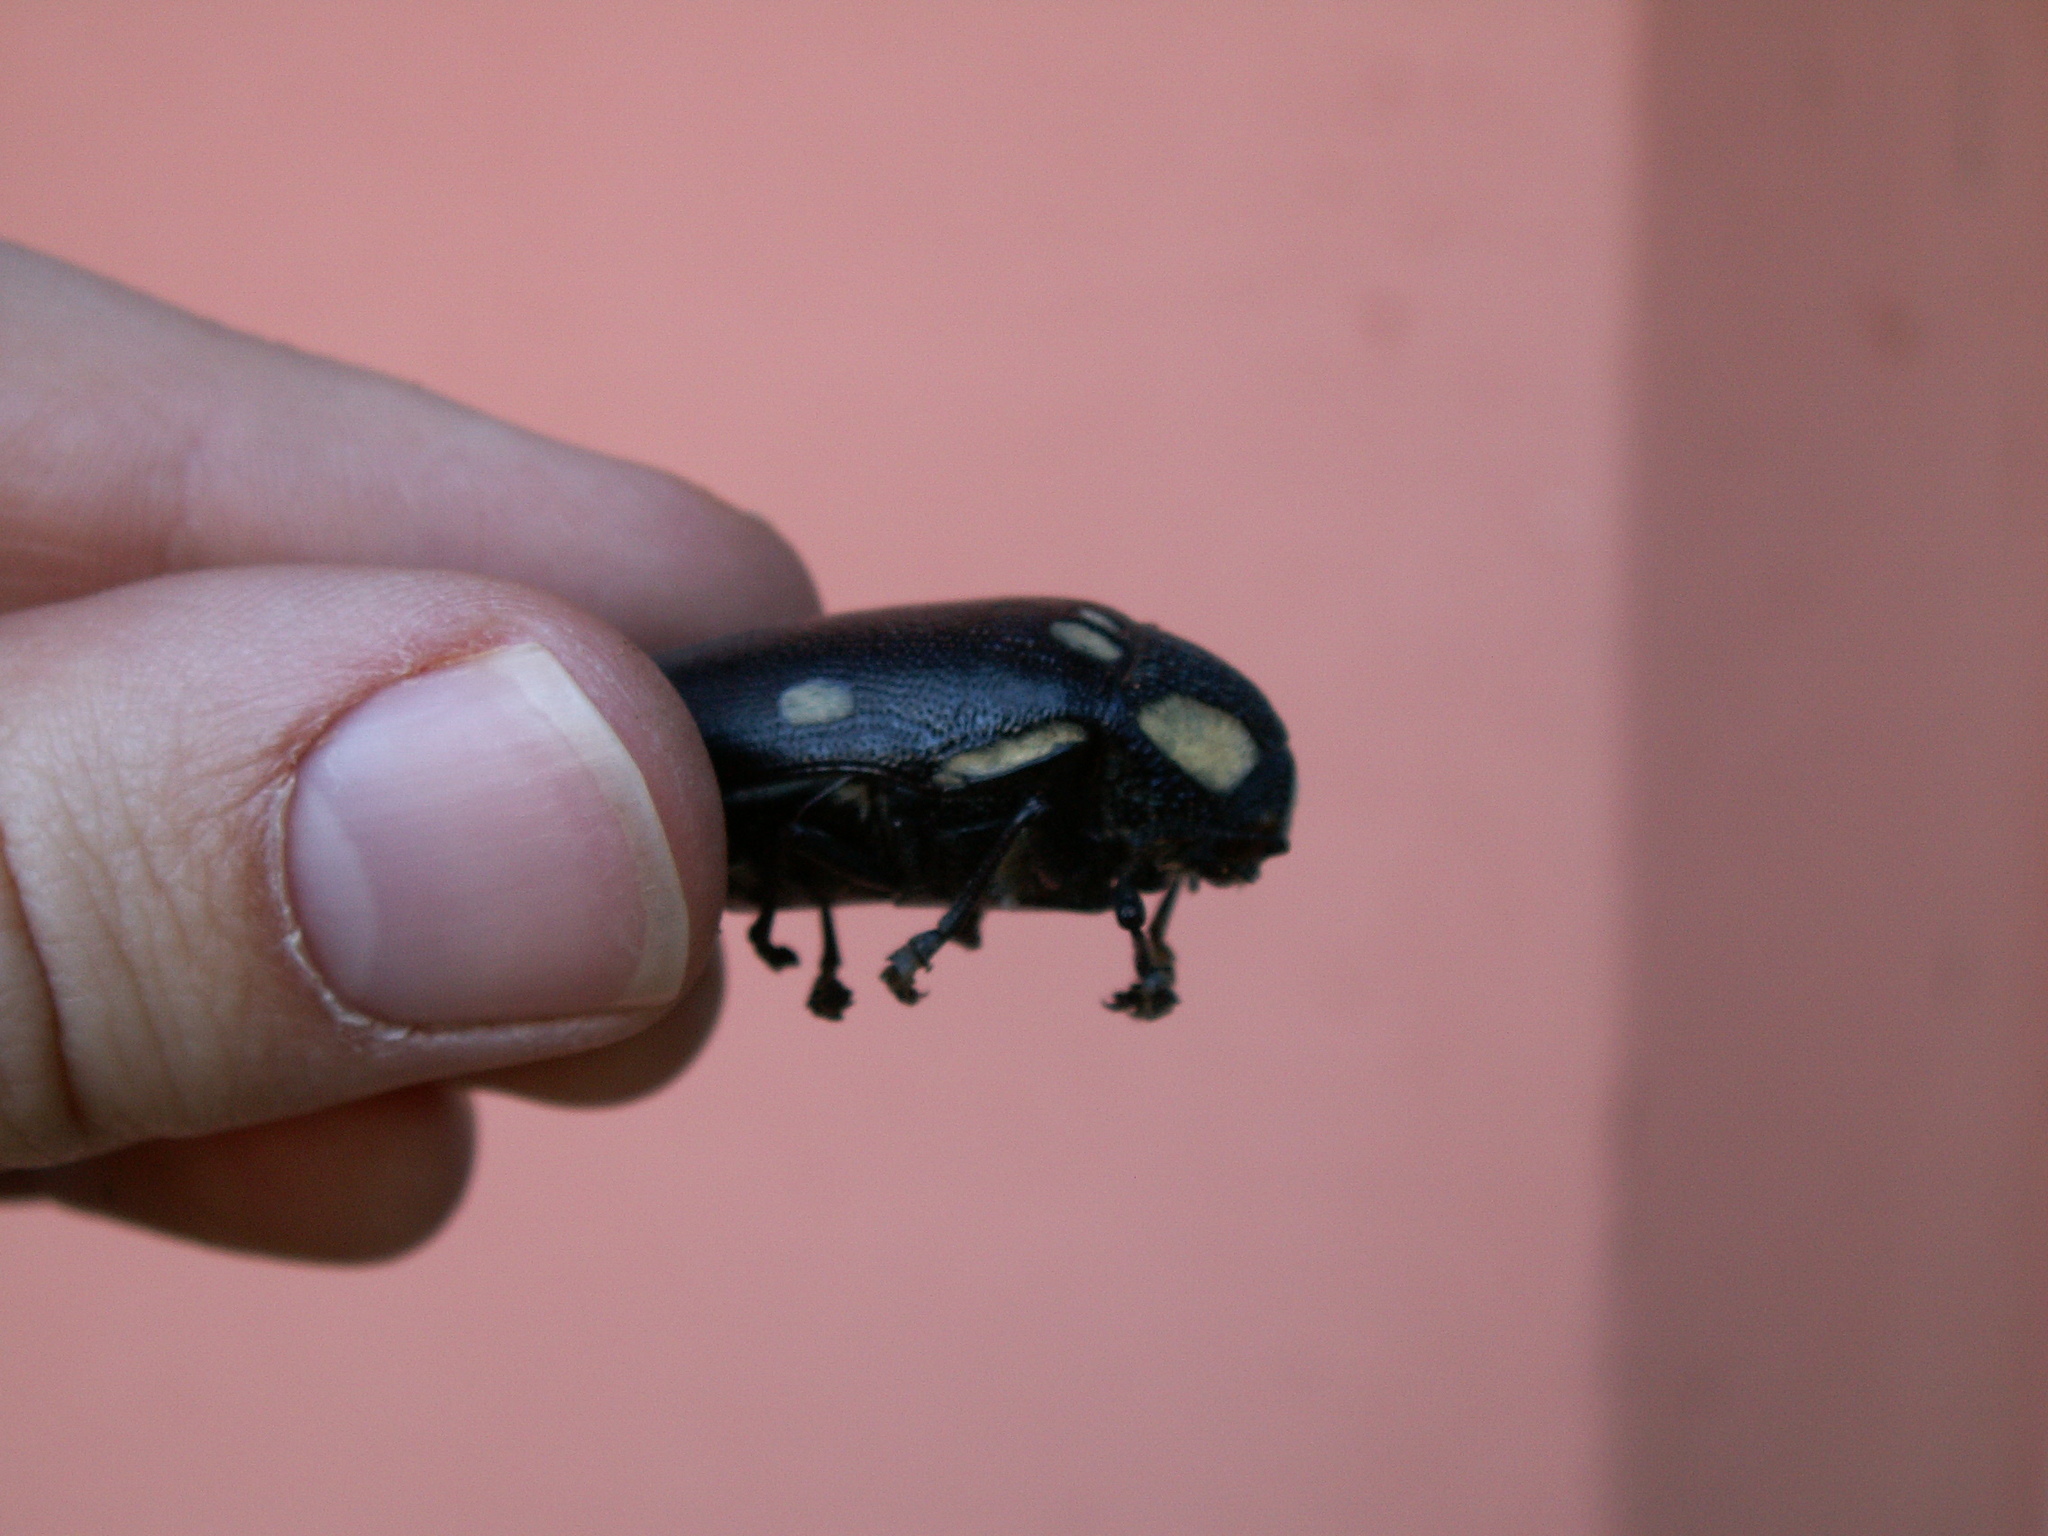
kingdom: Animalia
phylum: Arthropoda
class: Insecta
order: Coleoptera
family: Buprestidae
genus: Sternocera
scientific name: Sternocera orissa
